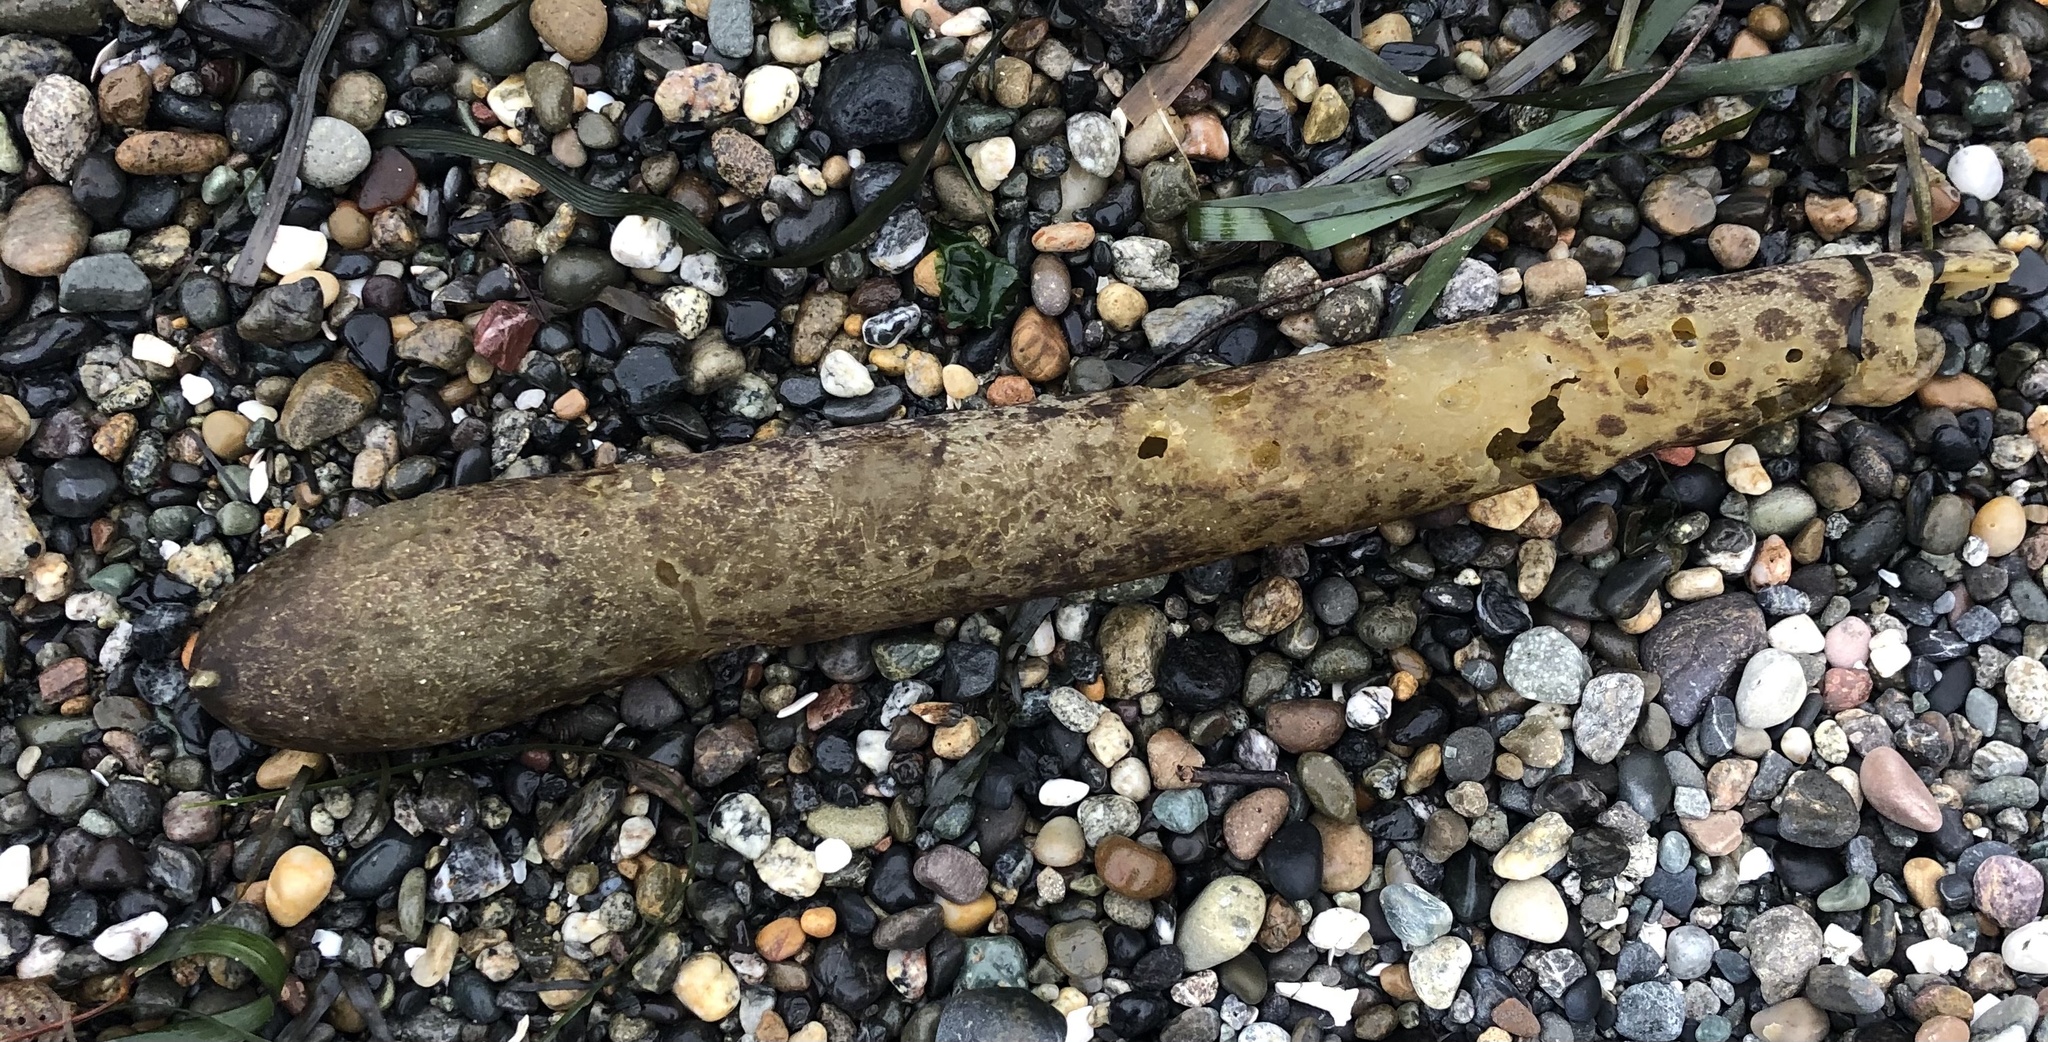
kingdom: Chromista
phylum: Ochrophyta
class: Phaeophyceae
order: Laminariales
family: Laminariaceae
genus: Nereocystis
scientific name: Nereocystis luetkeana
